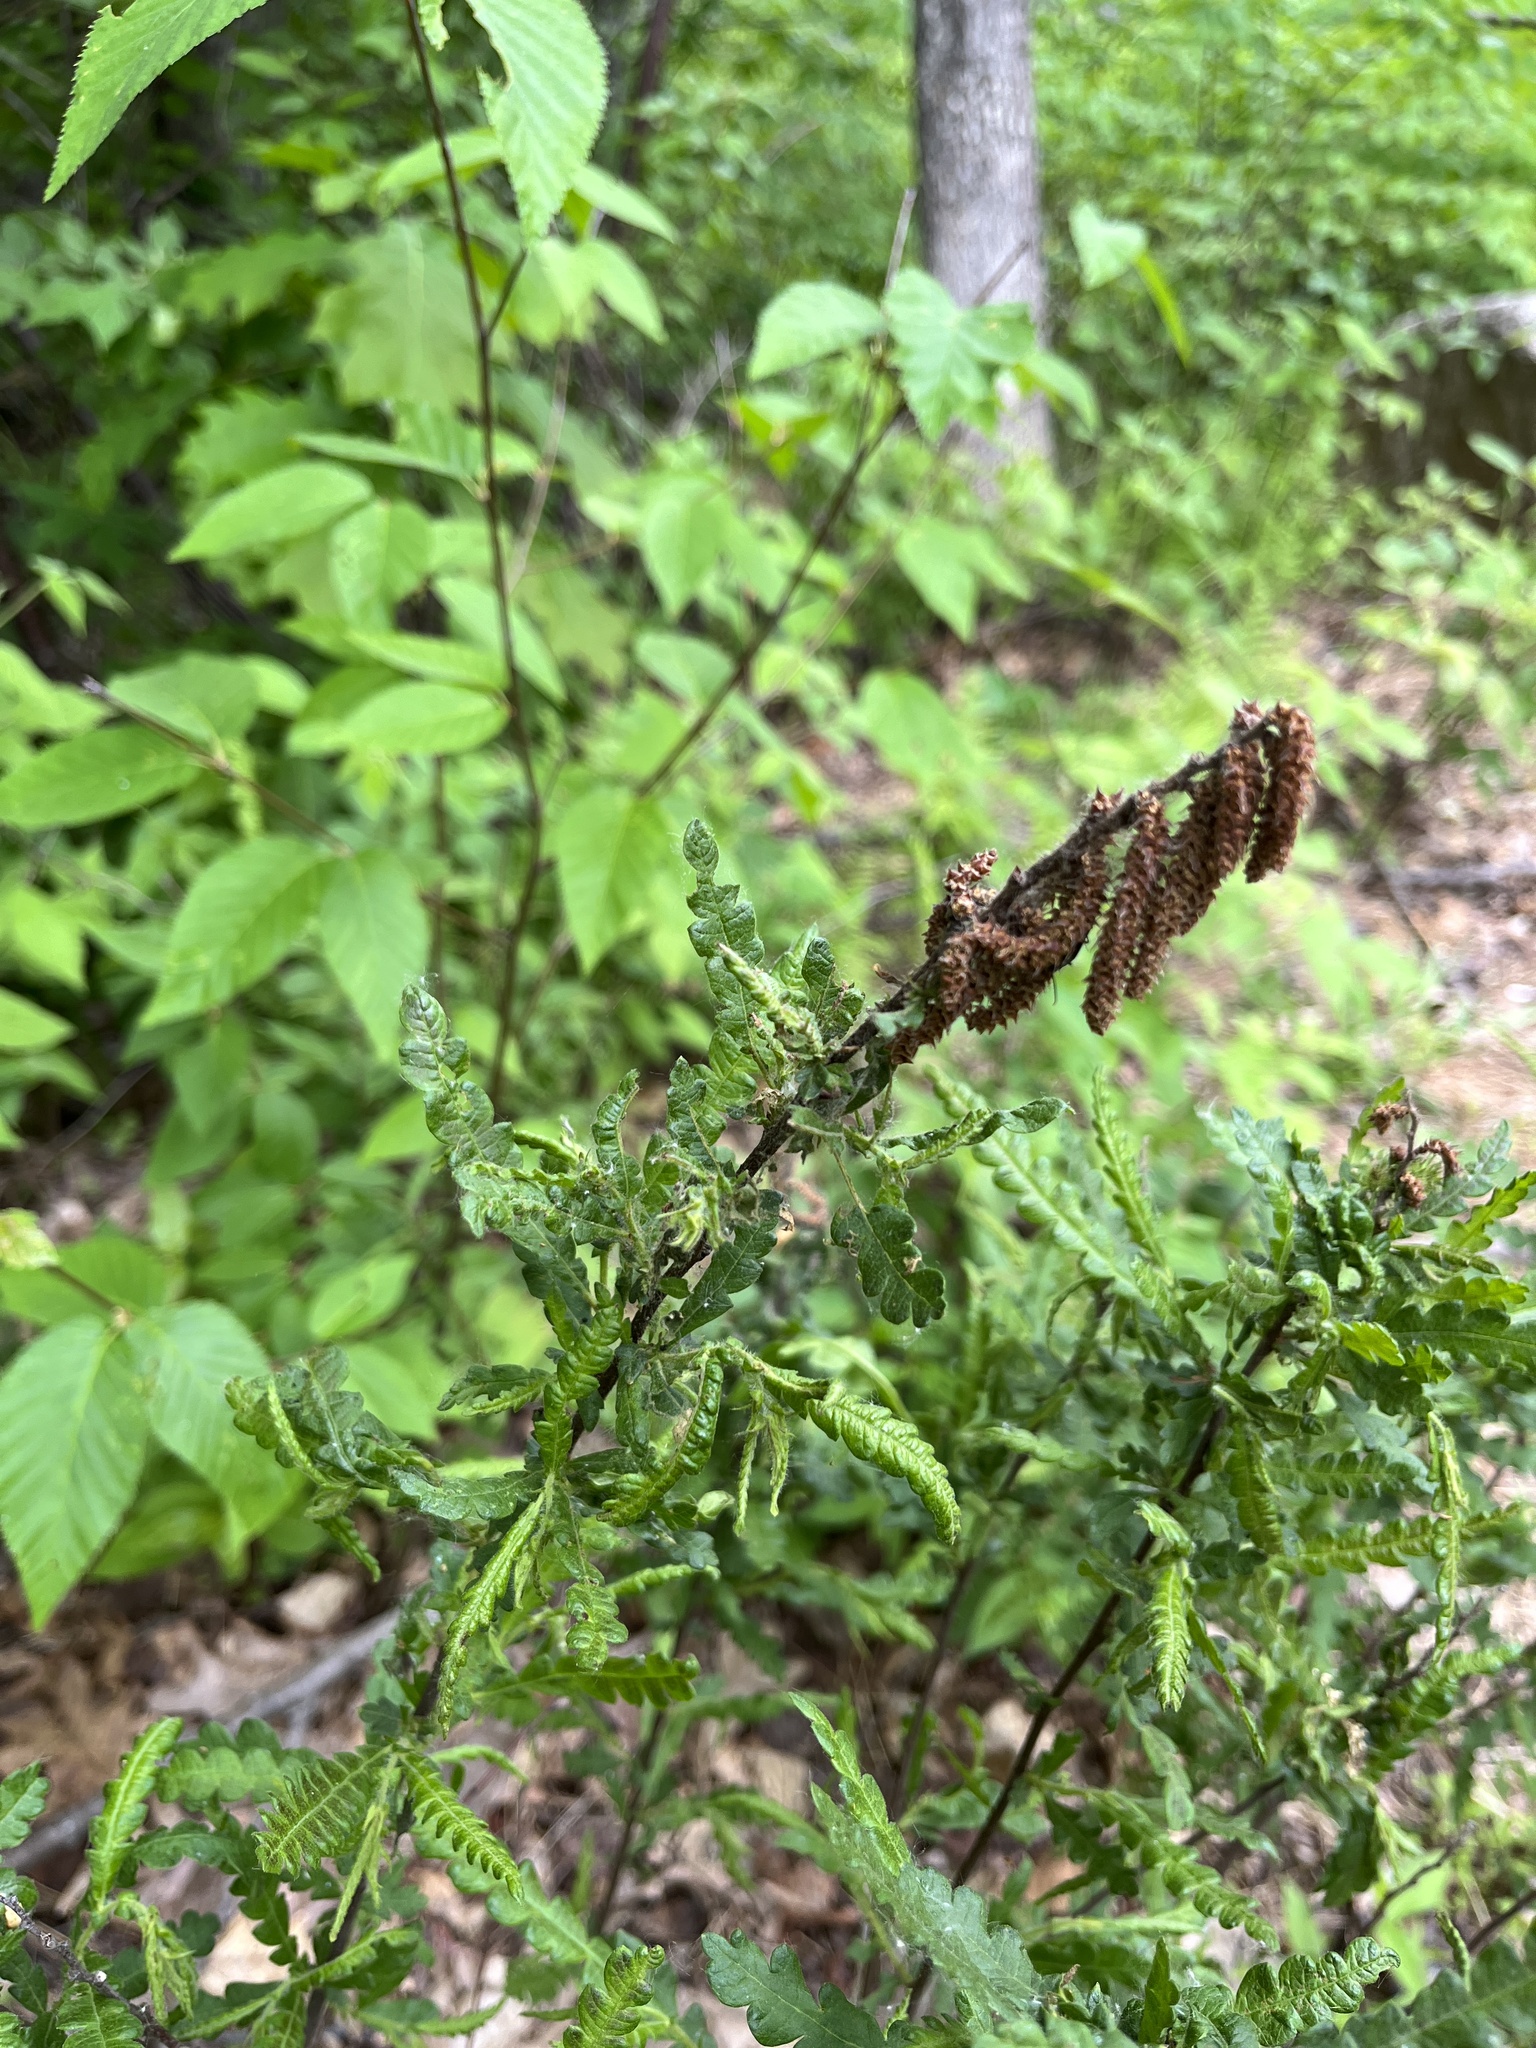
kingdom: Plantae
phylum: Tracheophyta
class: Magnoliopsida
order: Fagales
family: Myricaceae
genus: Comptonia
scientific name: Comptonia peregrina
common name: Sweet-fern
